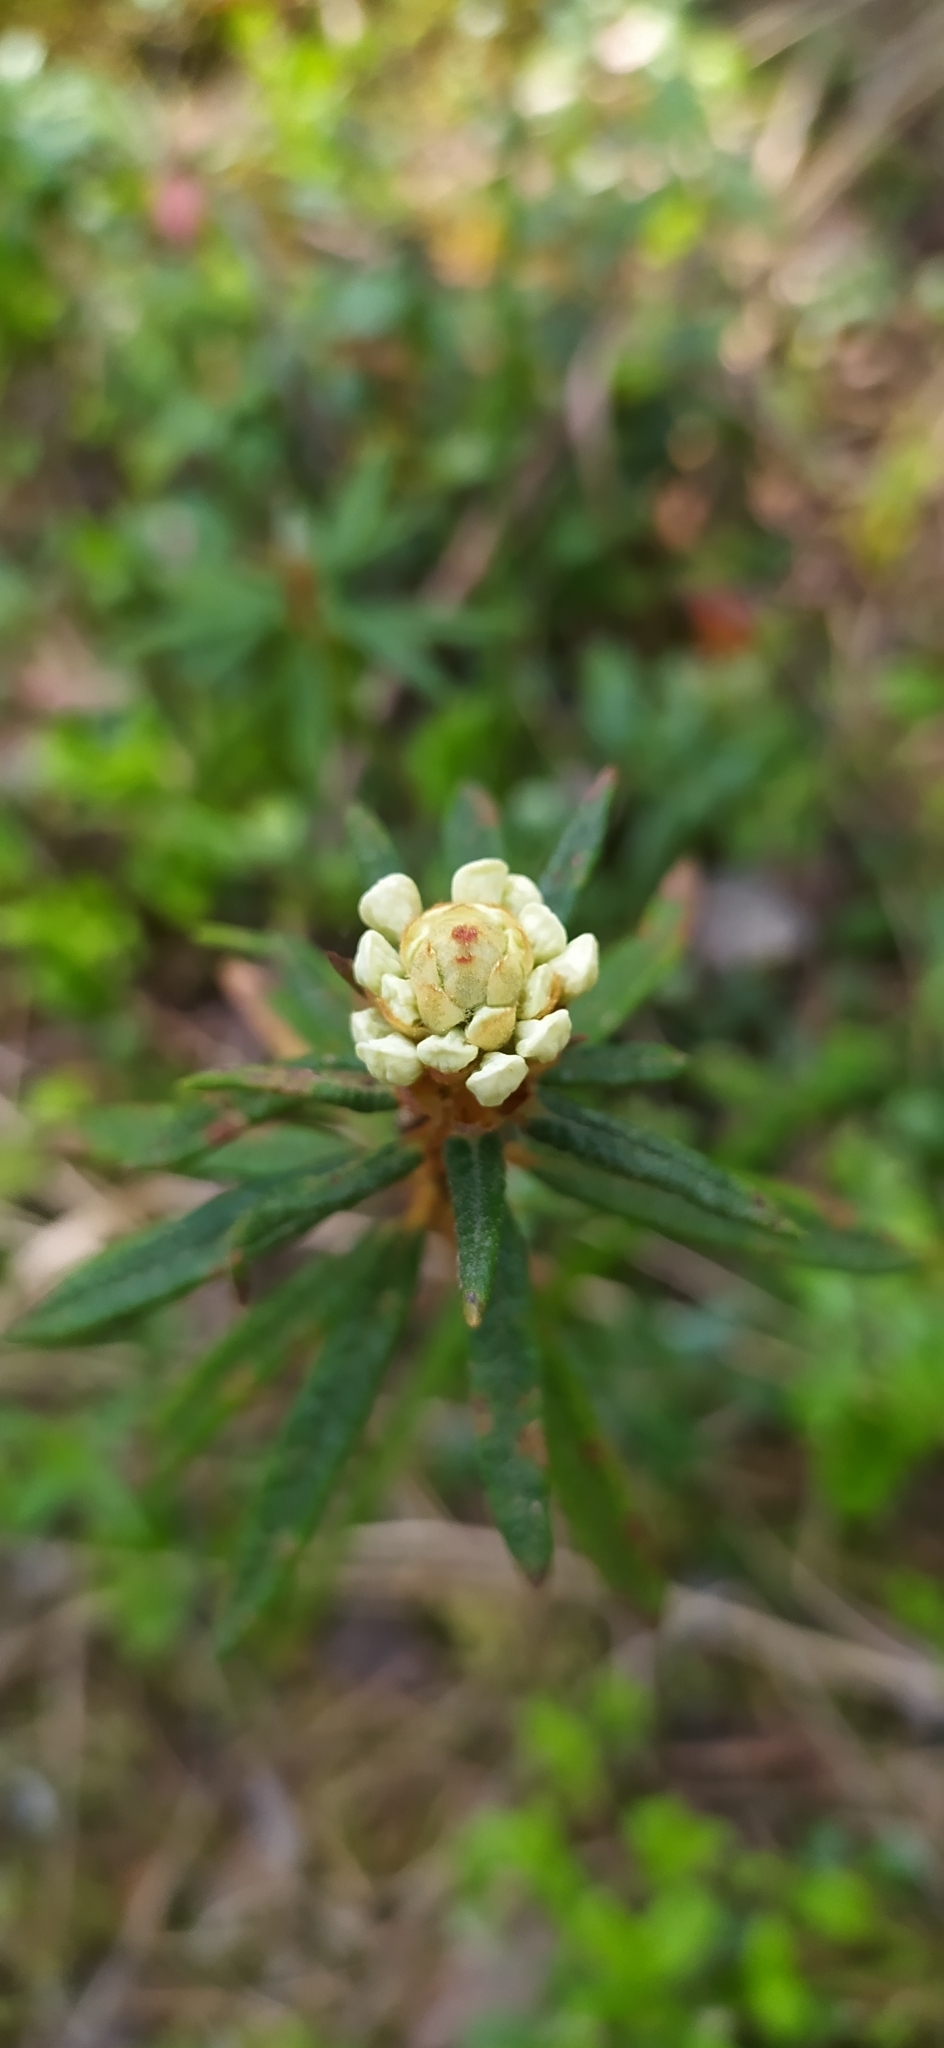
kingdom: Plantae
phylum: Tracheophyta
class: Magnoliopsida
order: Ericales
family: Ericaceae
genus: Rhododendron
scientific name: Rhododendron tomentosum
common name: Marsh labrador tea
